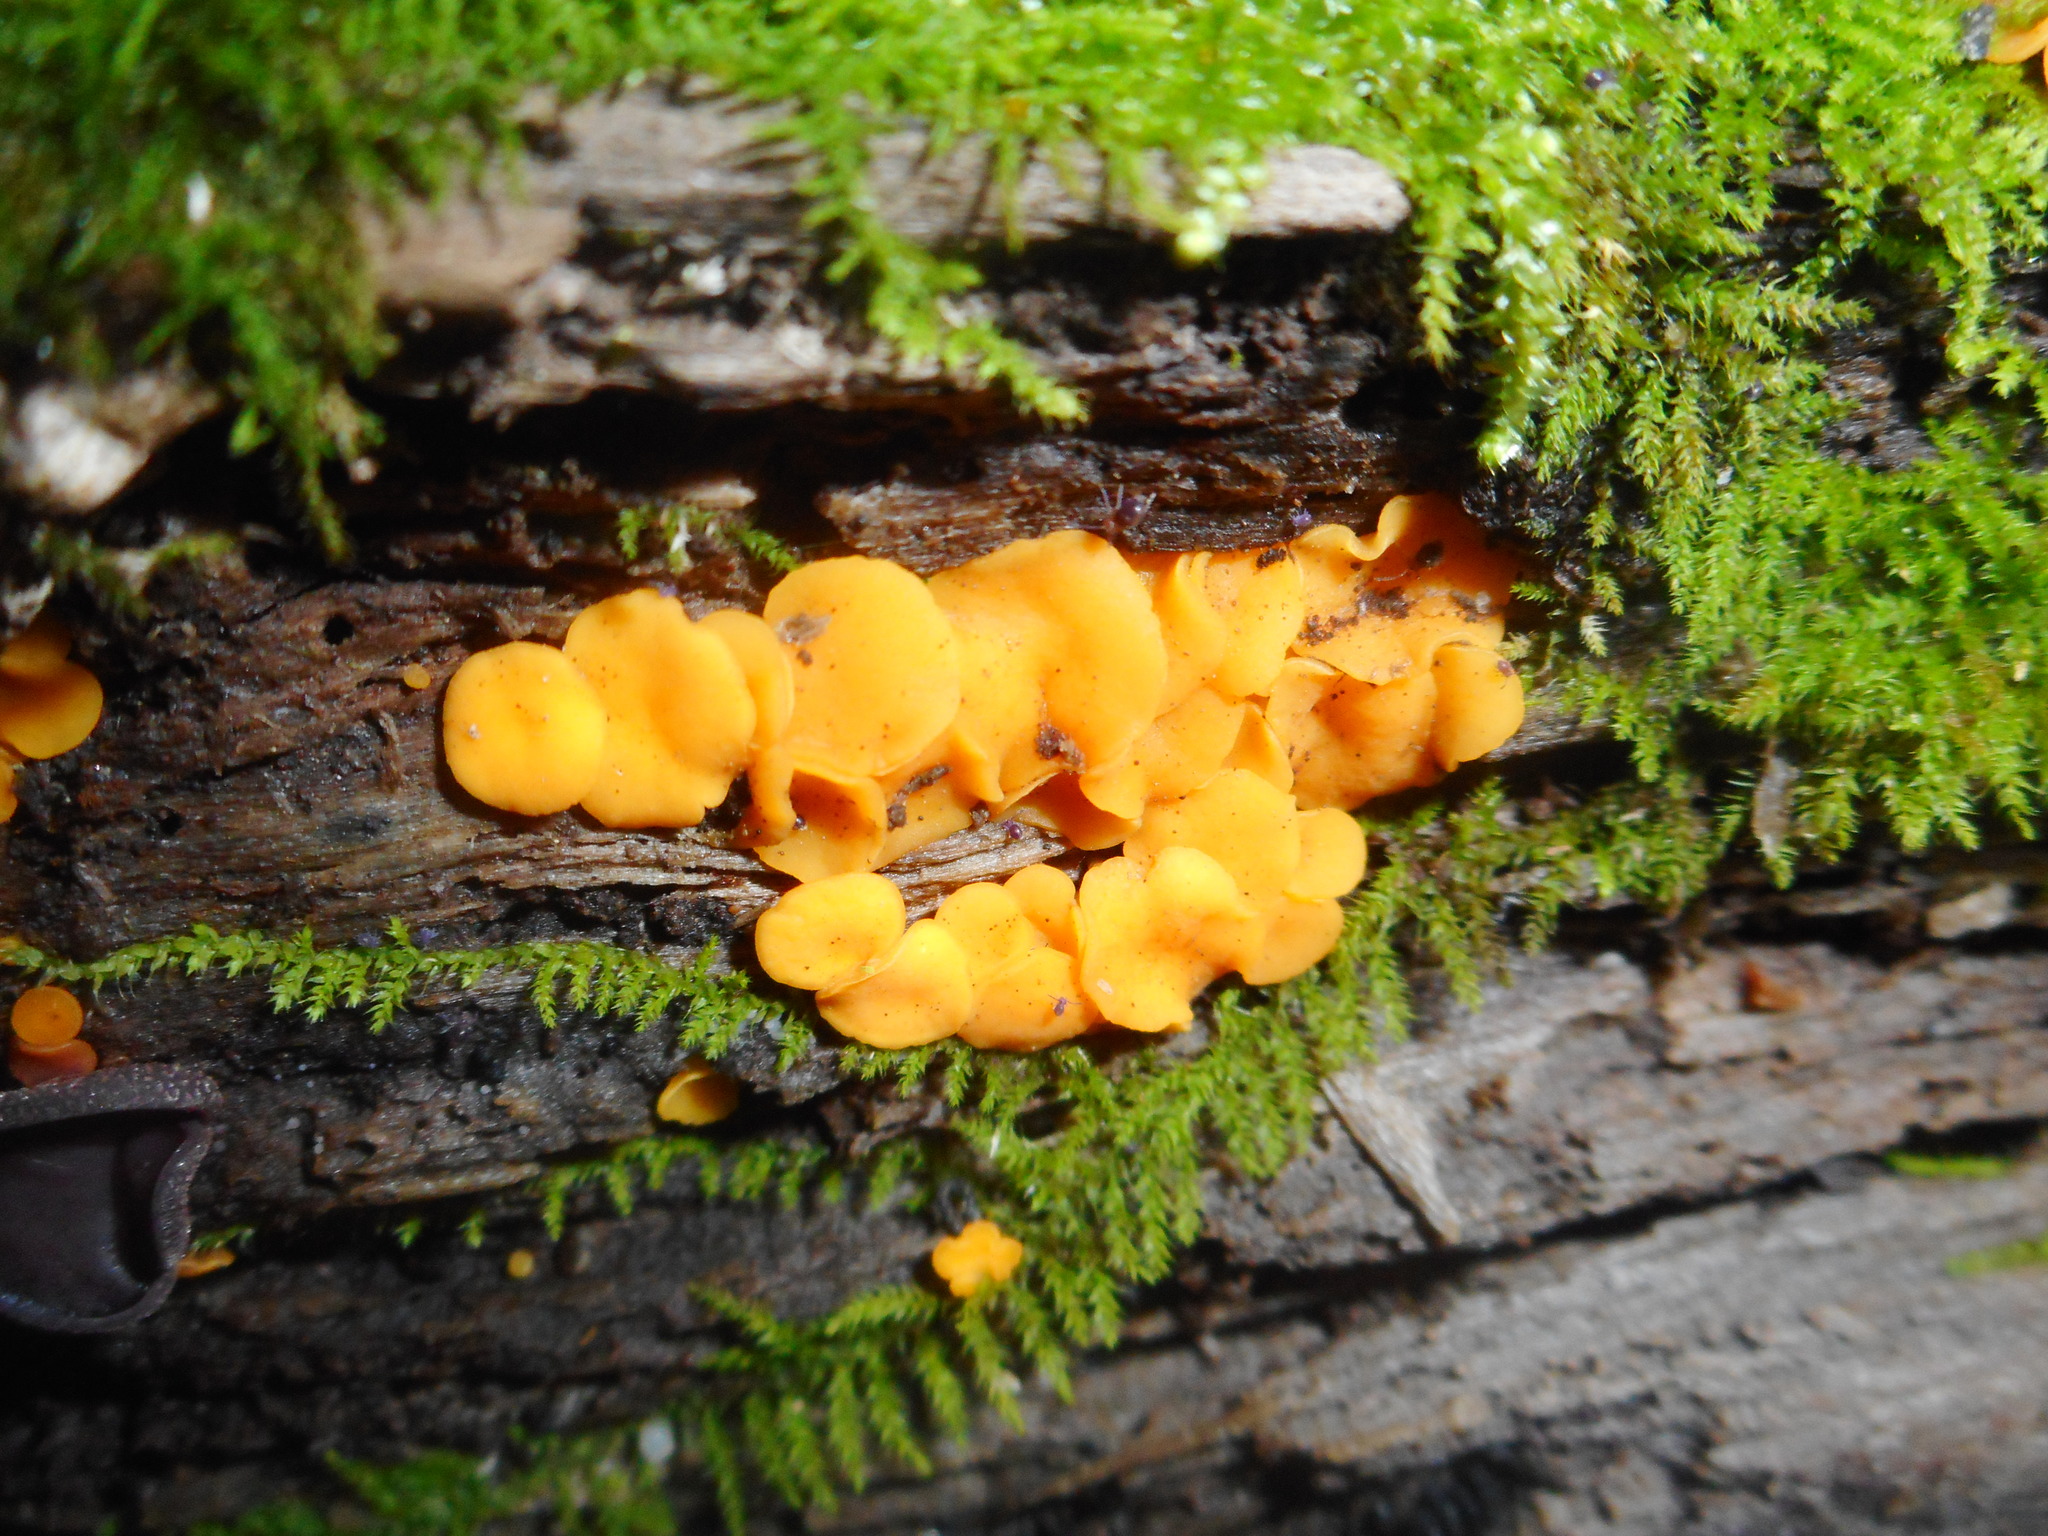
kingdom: Fungi
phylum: Ascomycota
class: Leotiomycetes
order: Helotiales
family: Pezizellaceae
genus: Calycina
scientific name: Calycina citrina
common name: Yellow fairy cups
